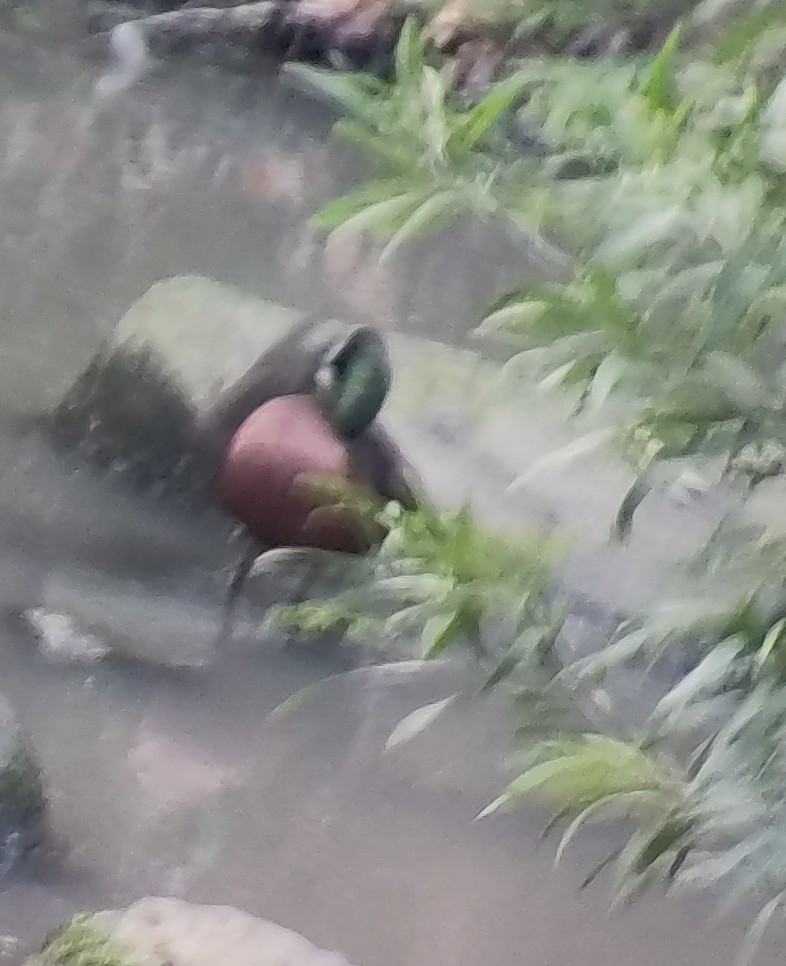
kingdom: Animalia
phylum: Chordata
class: Aves
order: Anseriformes
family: Anatidae
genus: Anas
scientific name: Anas castanea
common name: Chestnut teal
